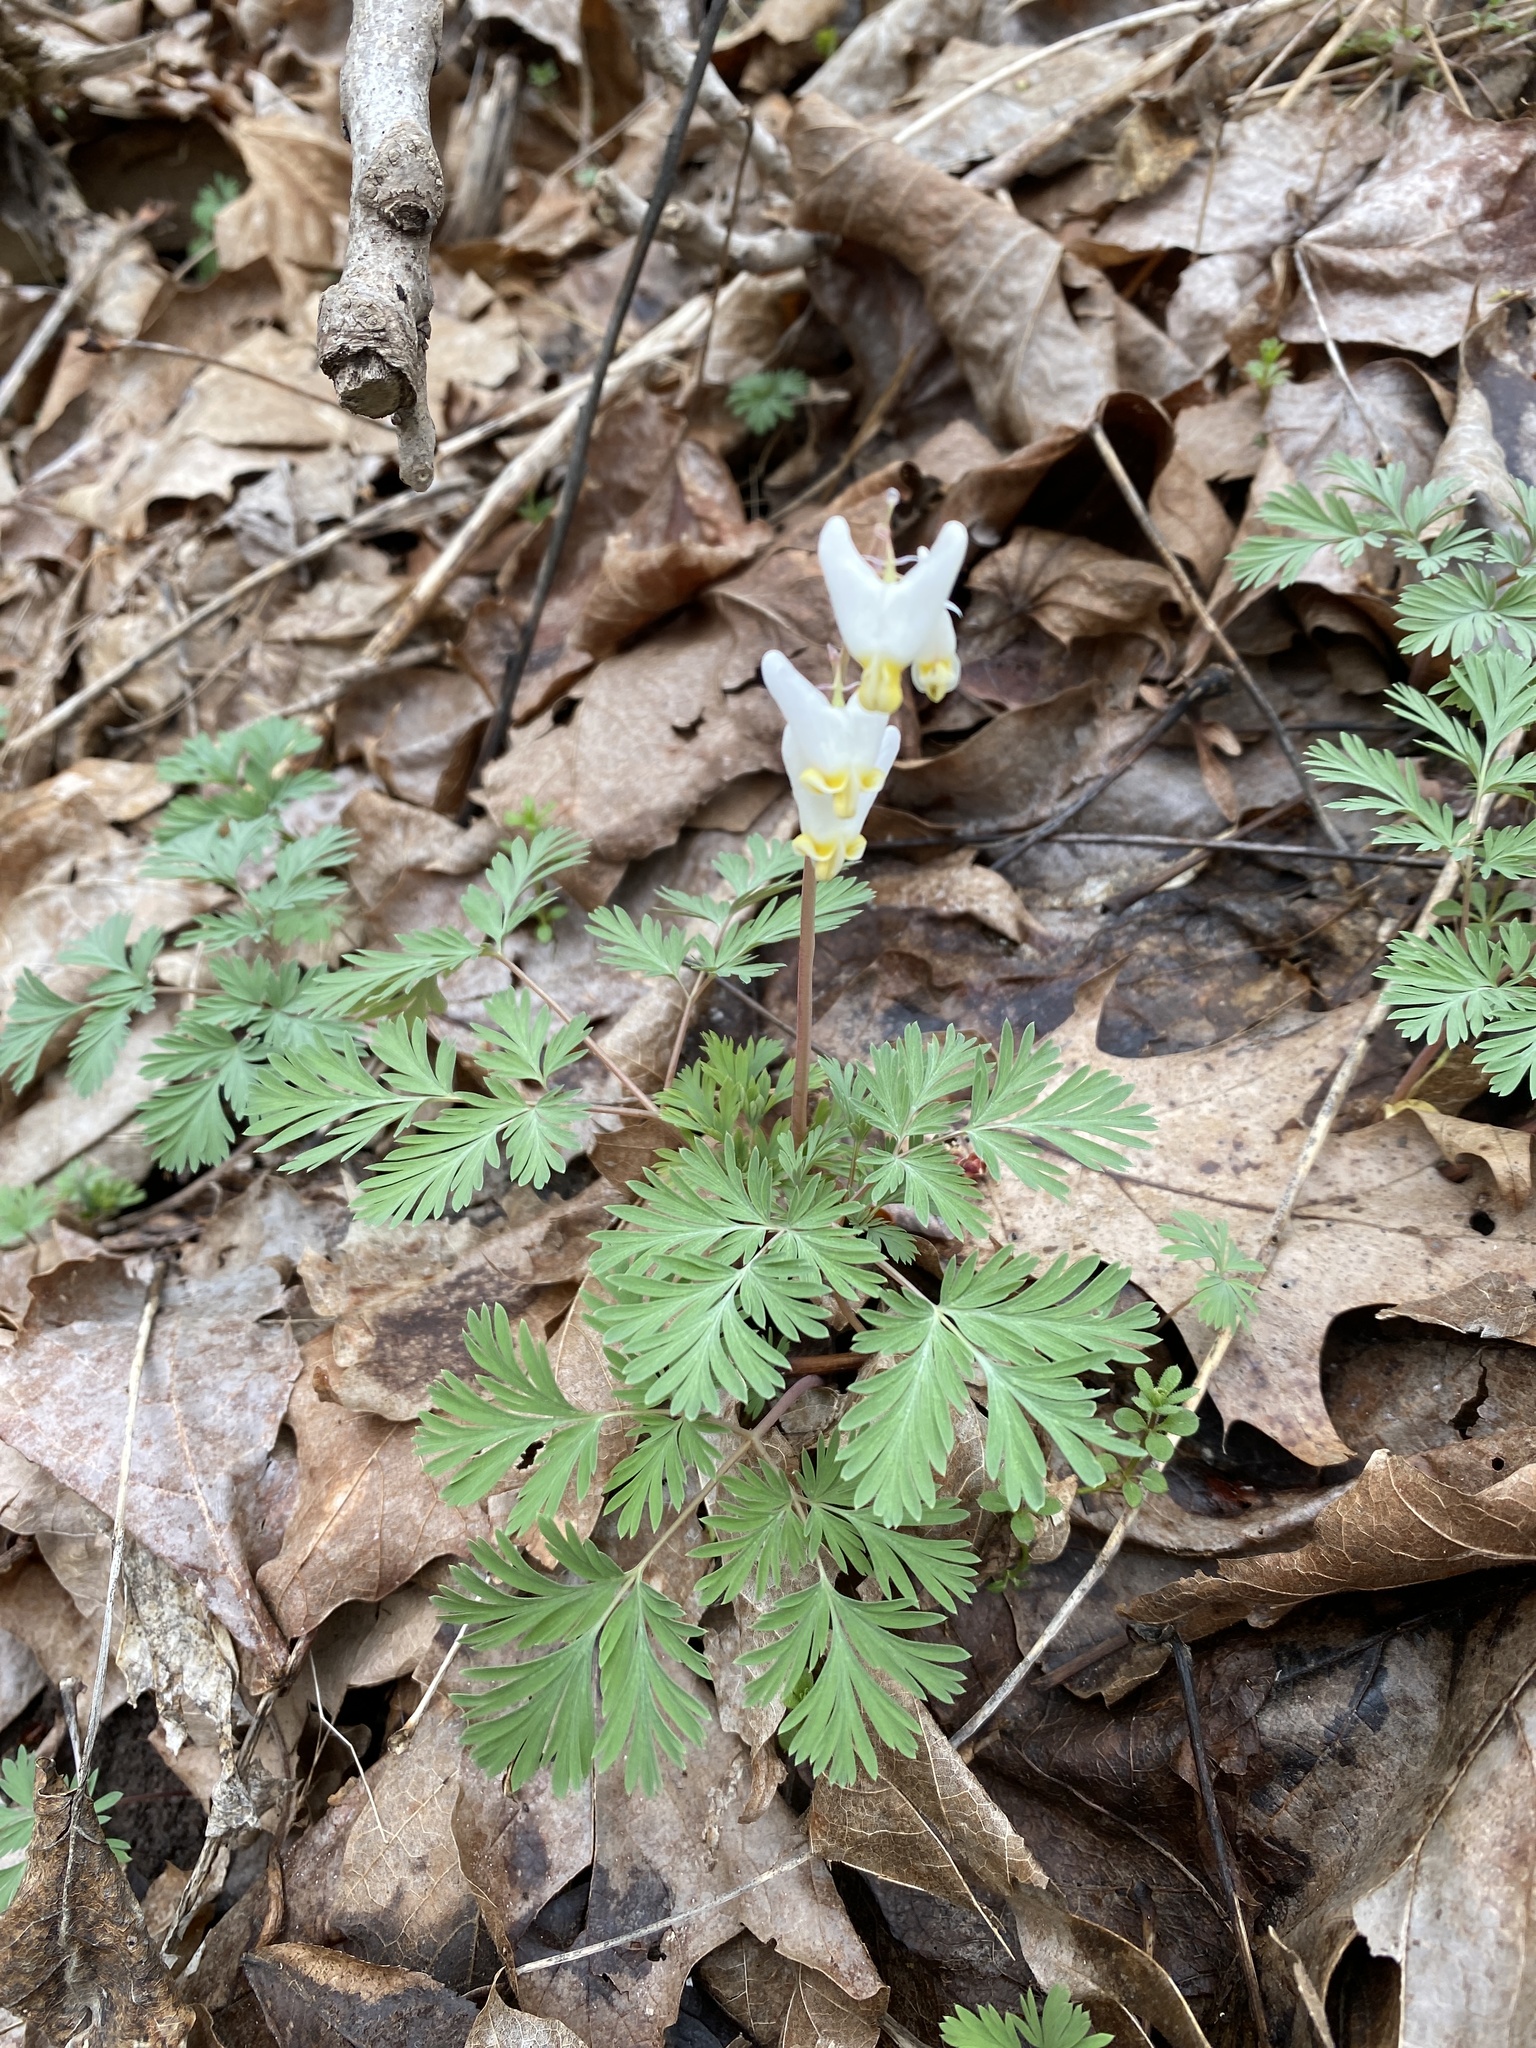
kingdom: Plantae
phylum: Tracheophyta
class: Magnoliopsida
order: Ranunculales
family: Papaveraceae
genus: Dicentra
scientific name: Dicentra cucullaria
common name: Dutchman's breeches
